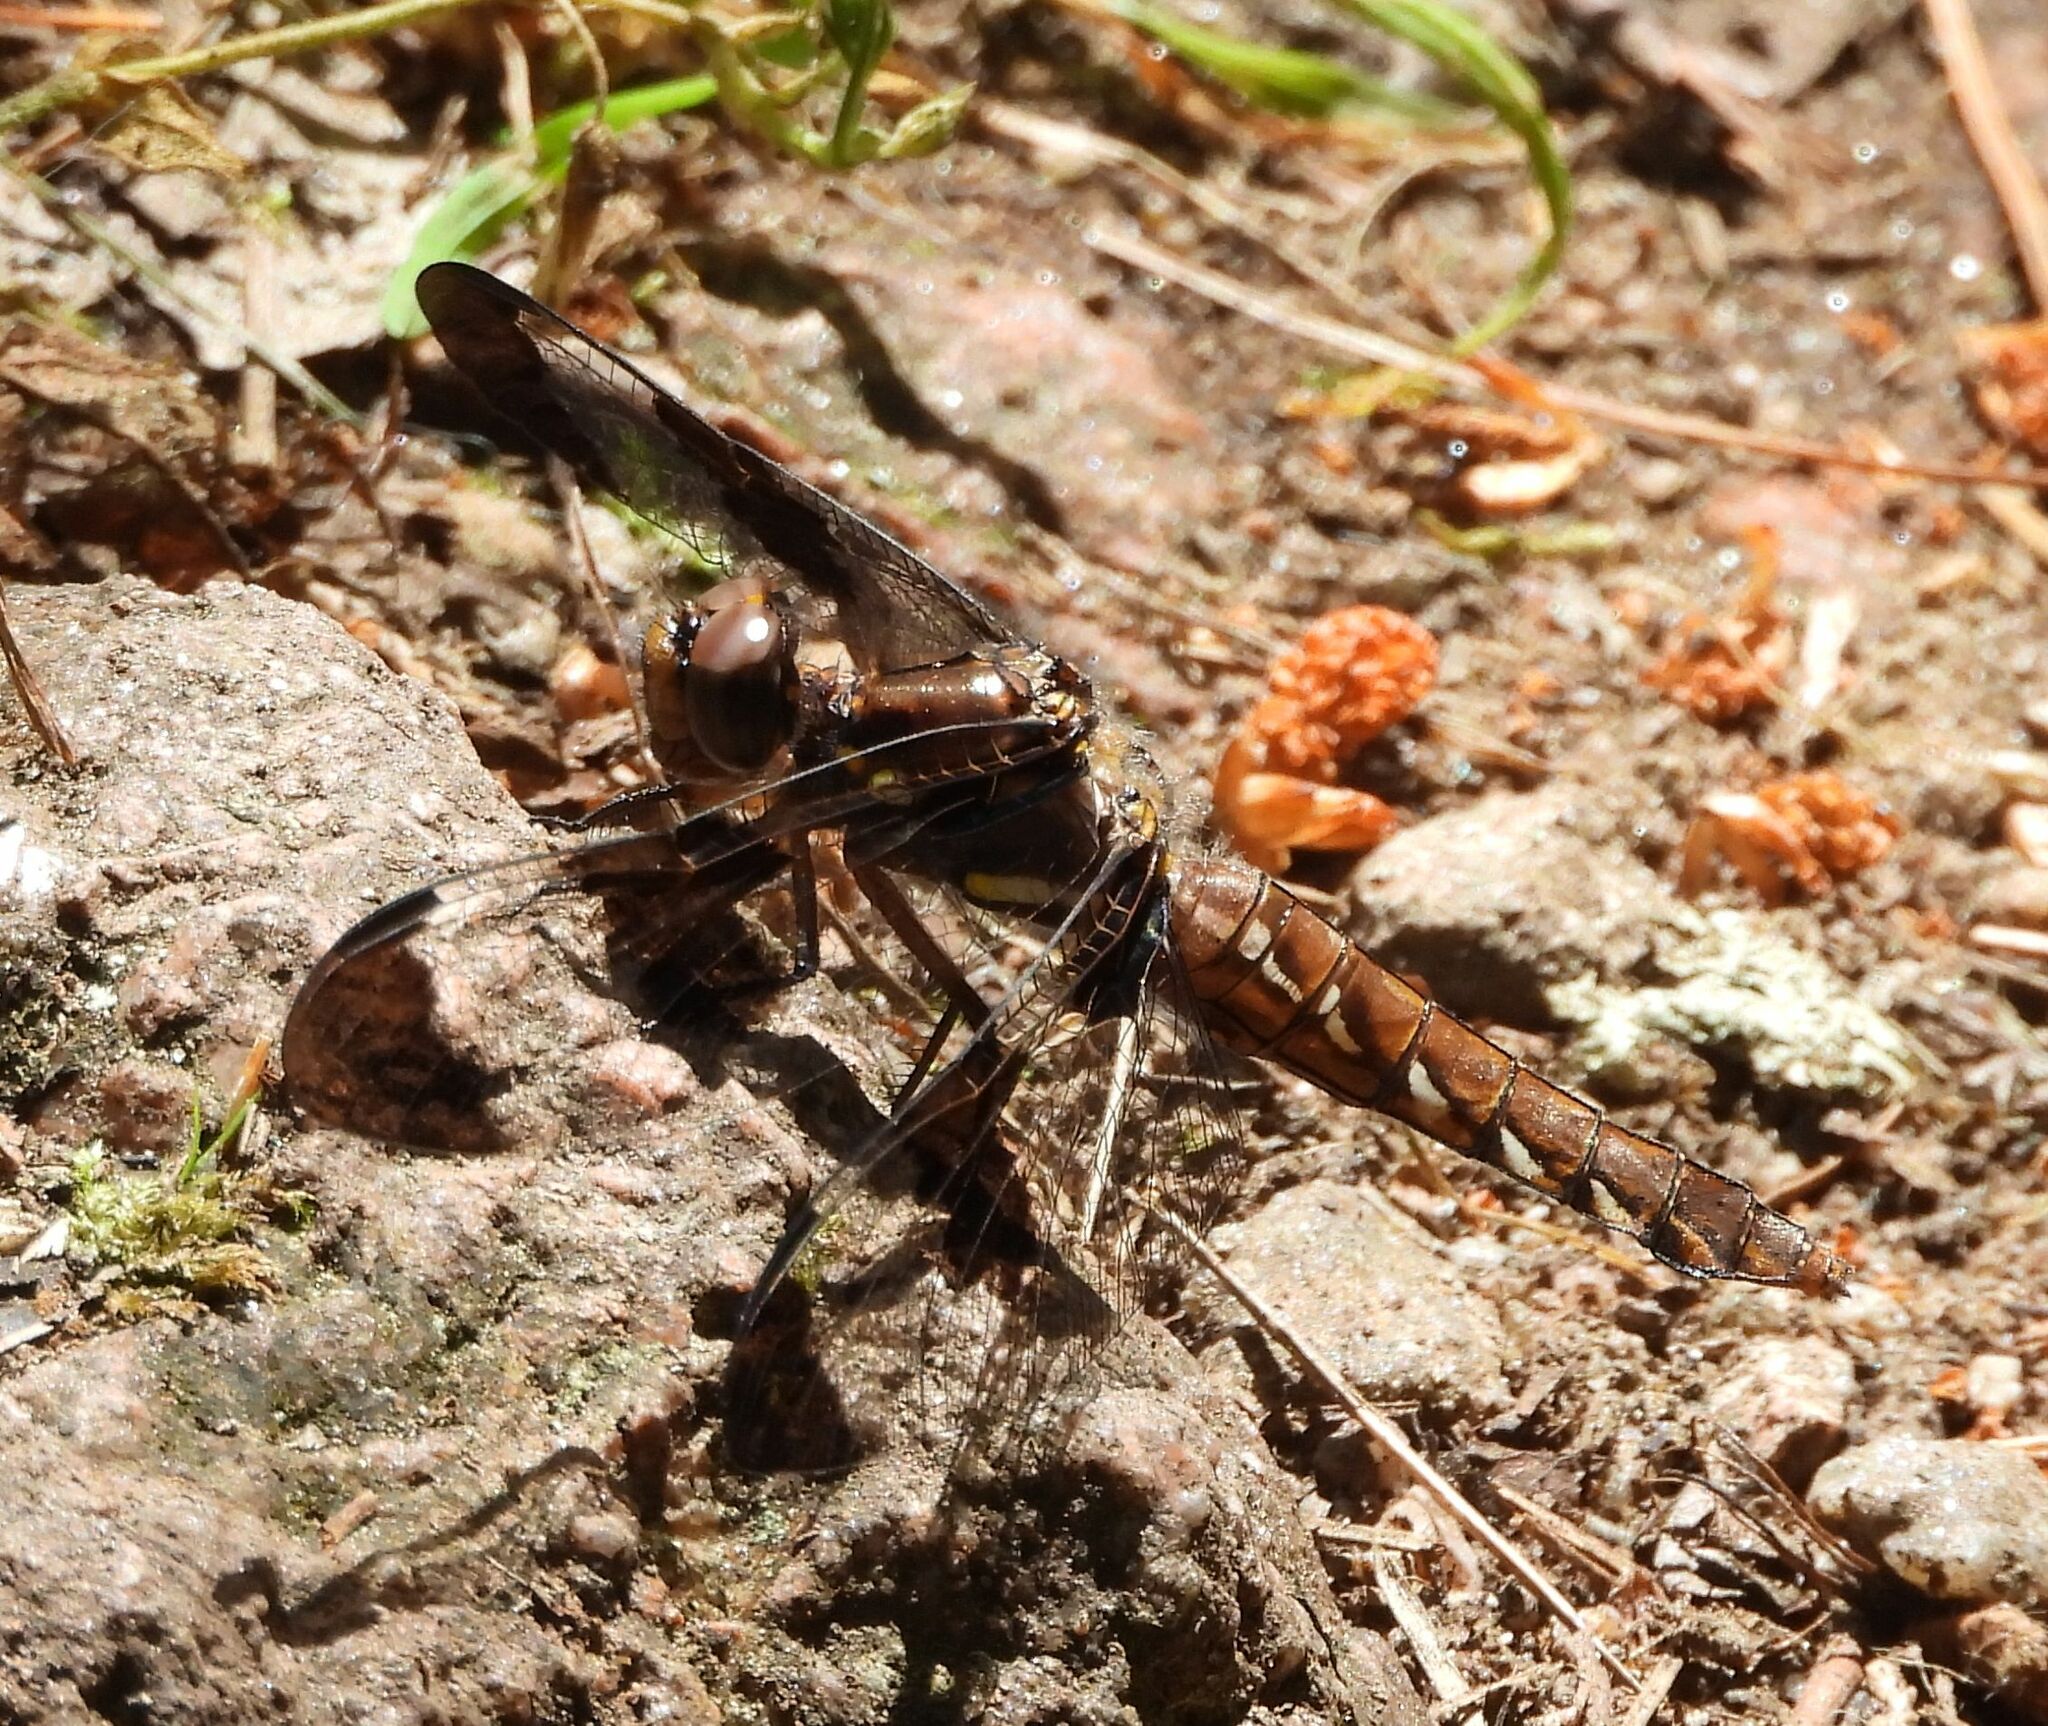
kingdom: Animalia
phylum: Arthropoda
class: Insecta
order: Odonata
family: Libellulidae
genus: Plathemis
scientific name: Plathemis lydia
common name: Common whitetail
